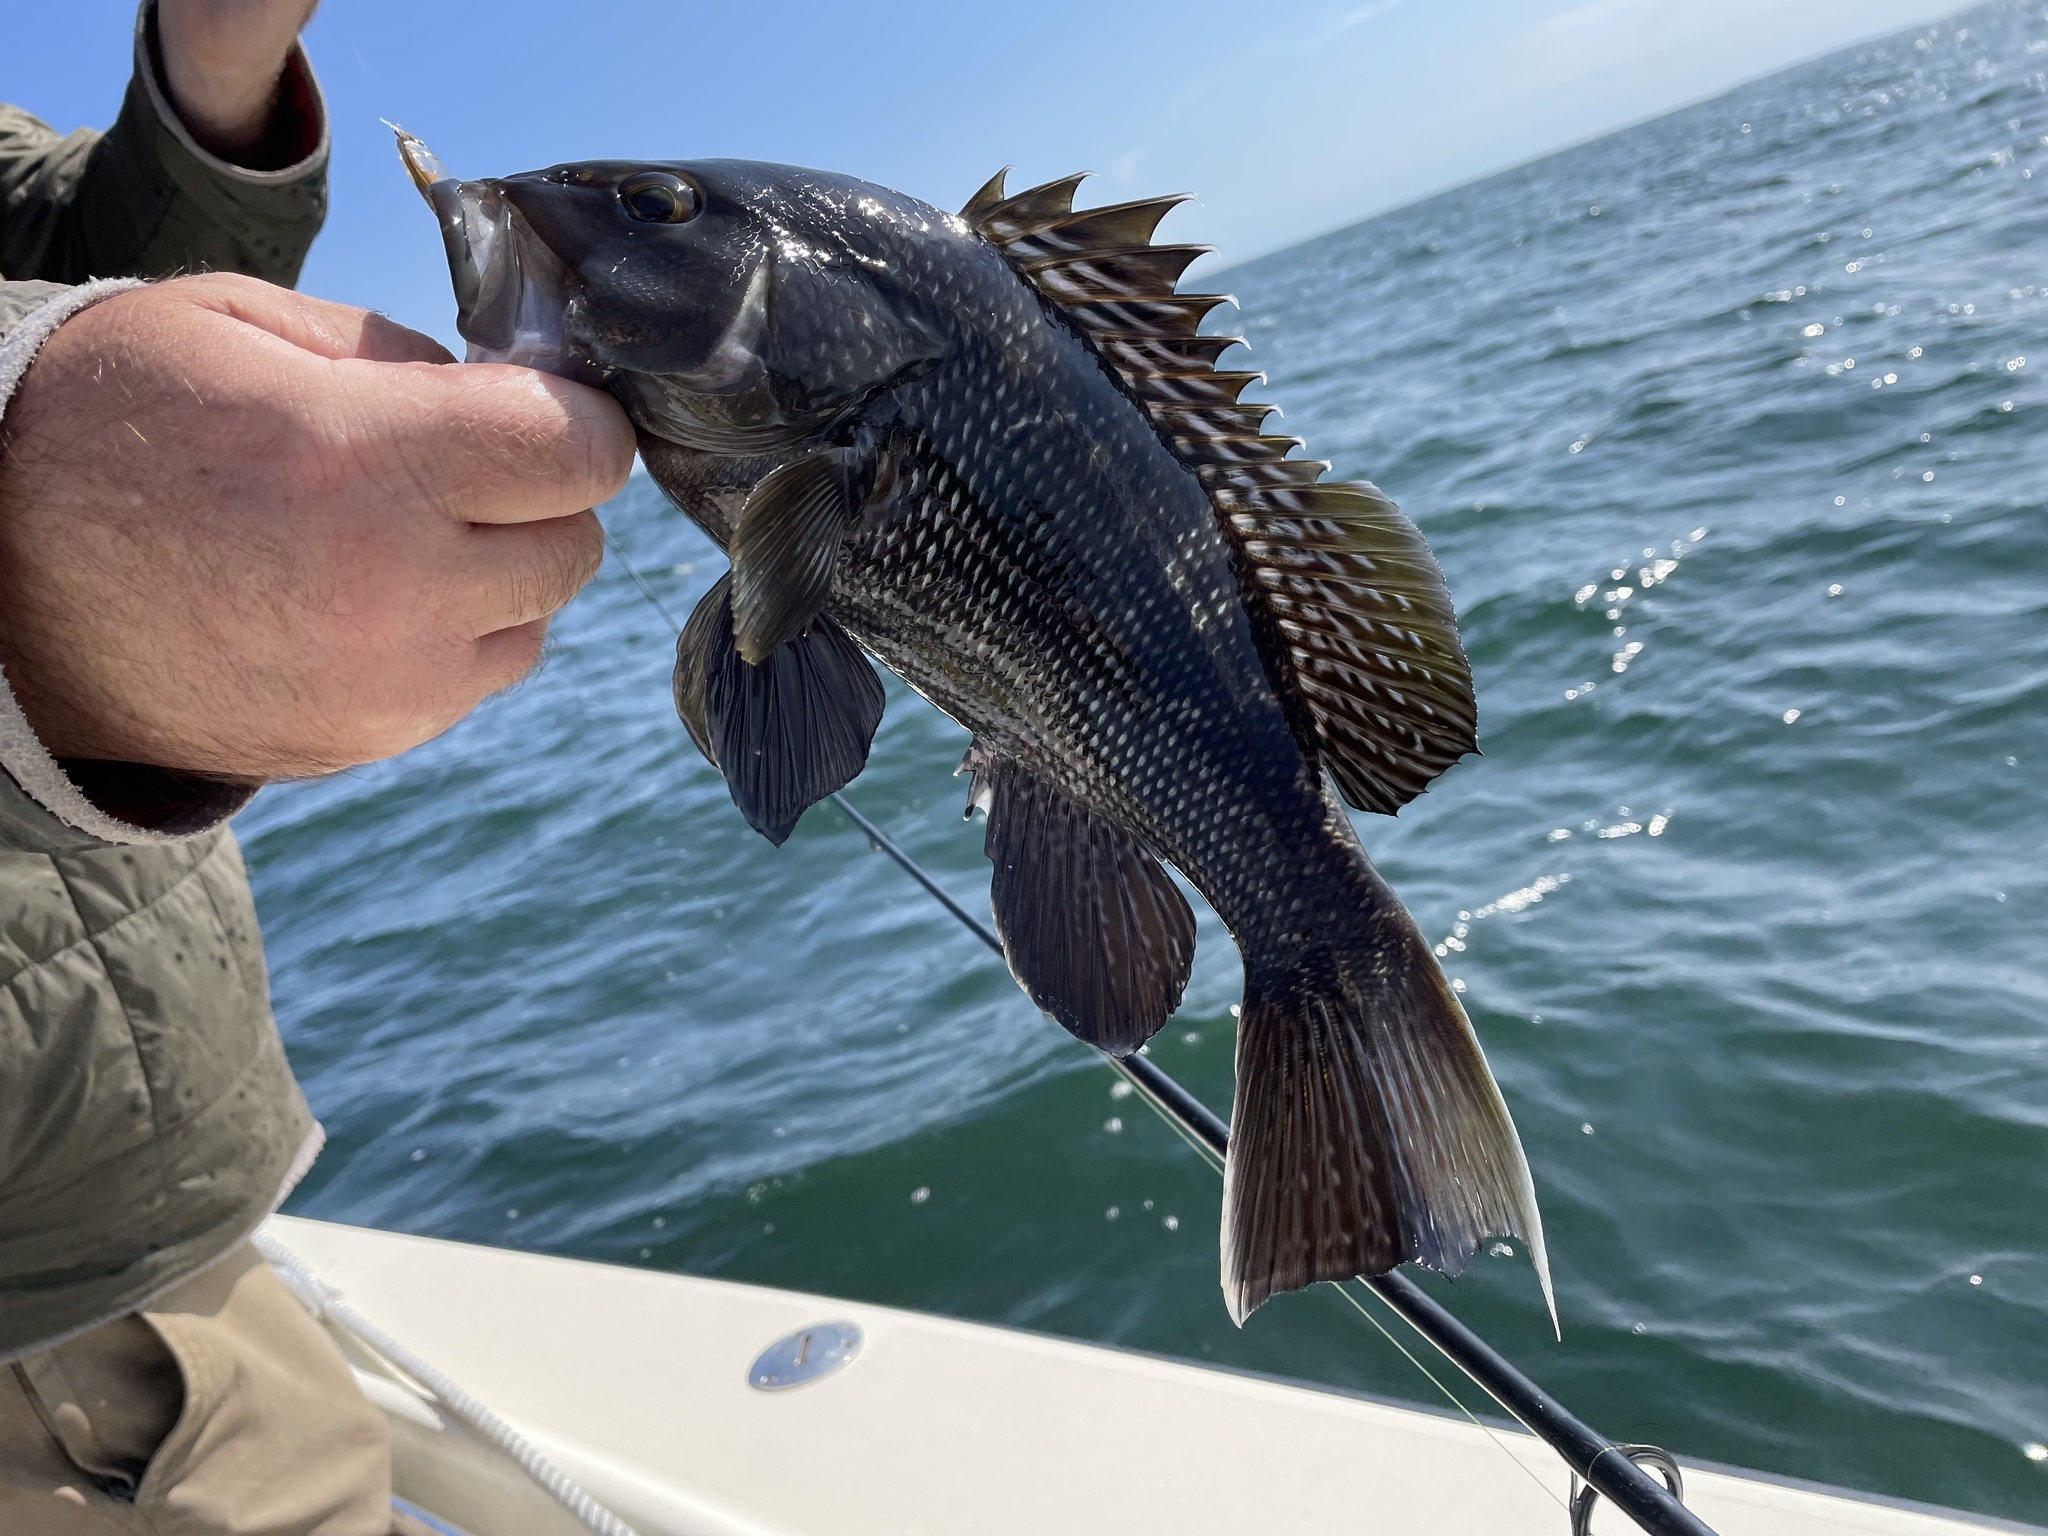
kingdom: Animalia
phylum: Chordata
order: Perciformes
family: Serranidae
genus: Centropristis
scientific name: Centropristis striata
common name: Black sea bass
